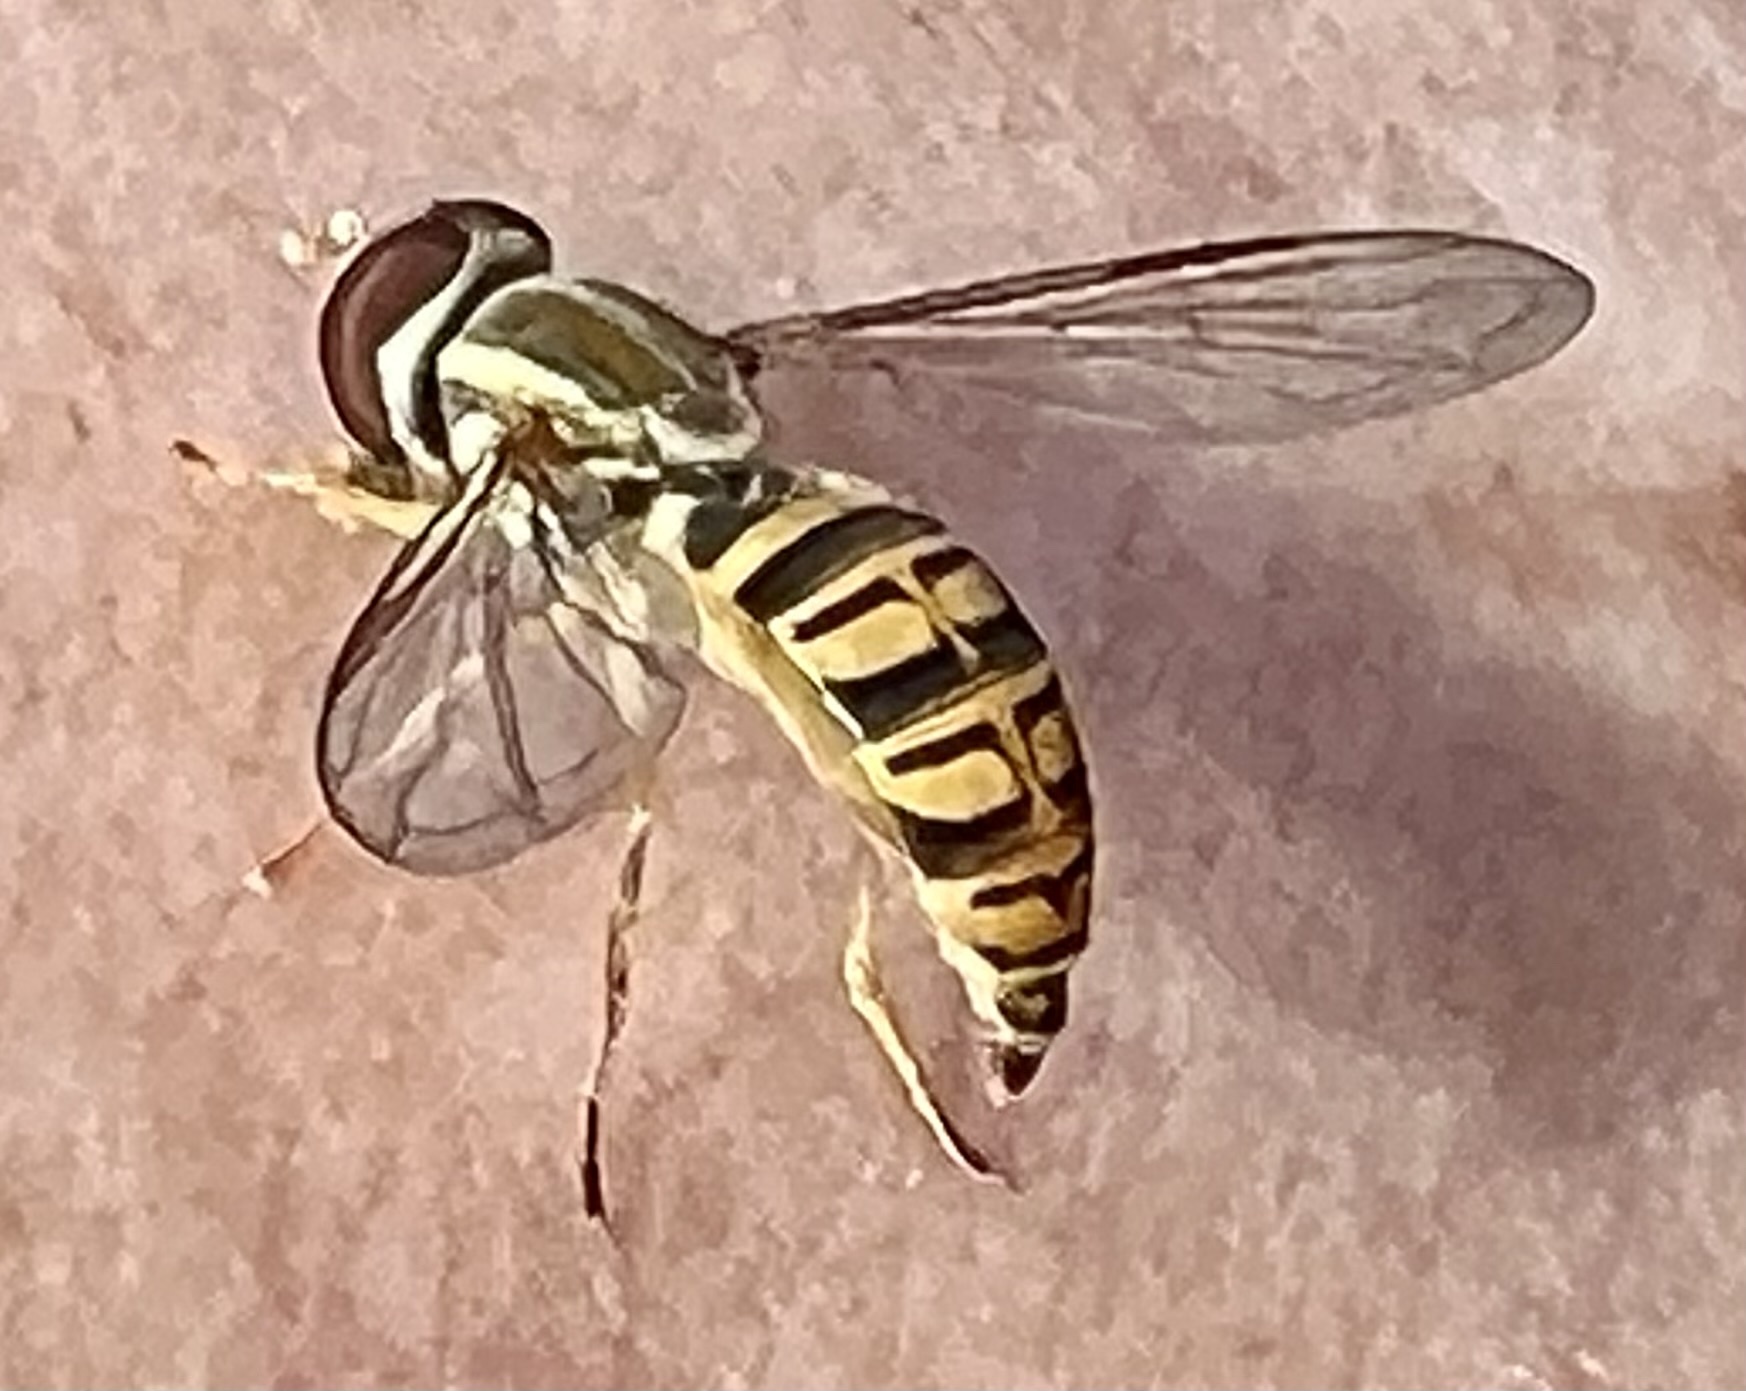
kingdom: Animalia
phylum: Arthropoda
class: Insecta
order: Diptera
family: Syrphidae
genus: Toxomerus
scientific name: Toxomerus politus
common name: Maize calligrapher
